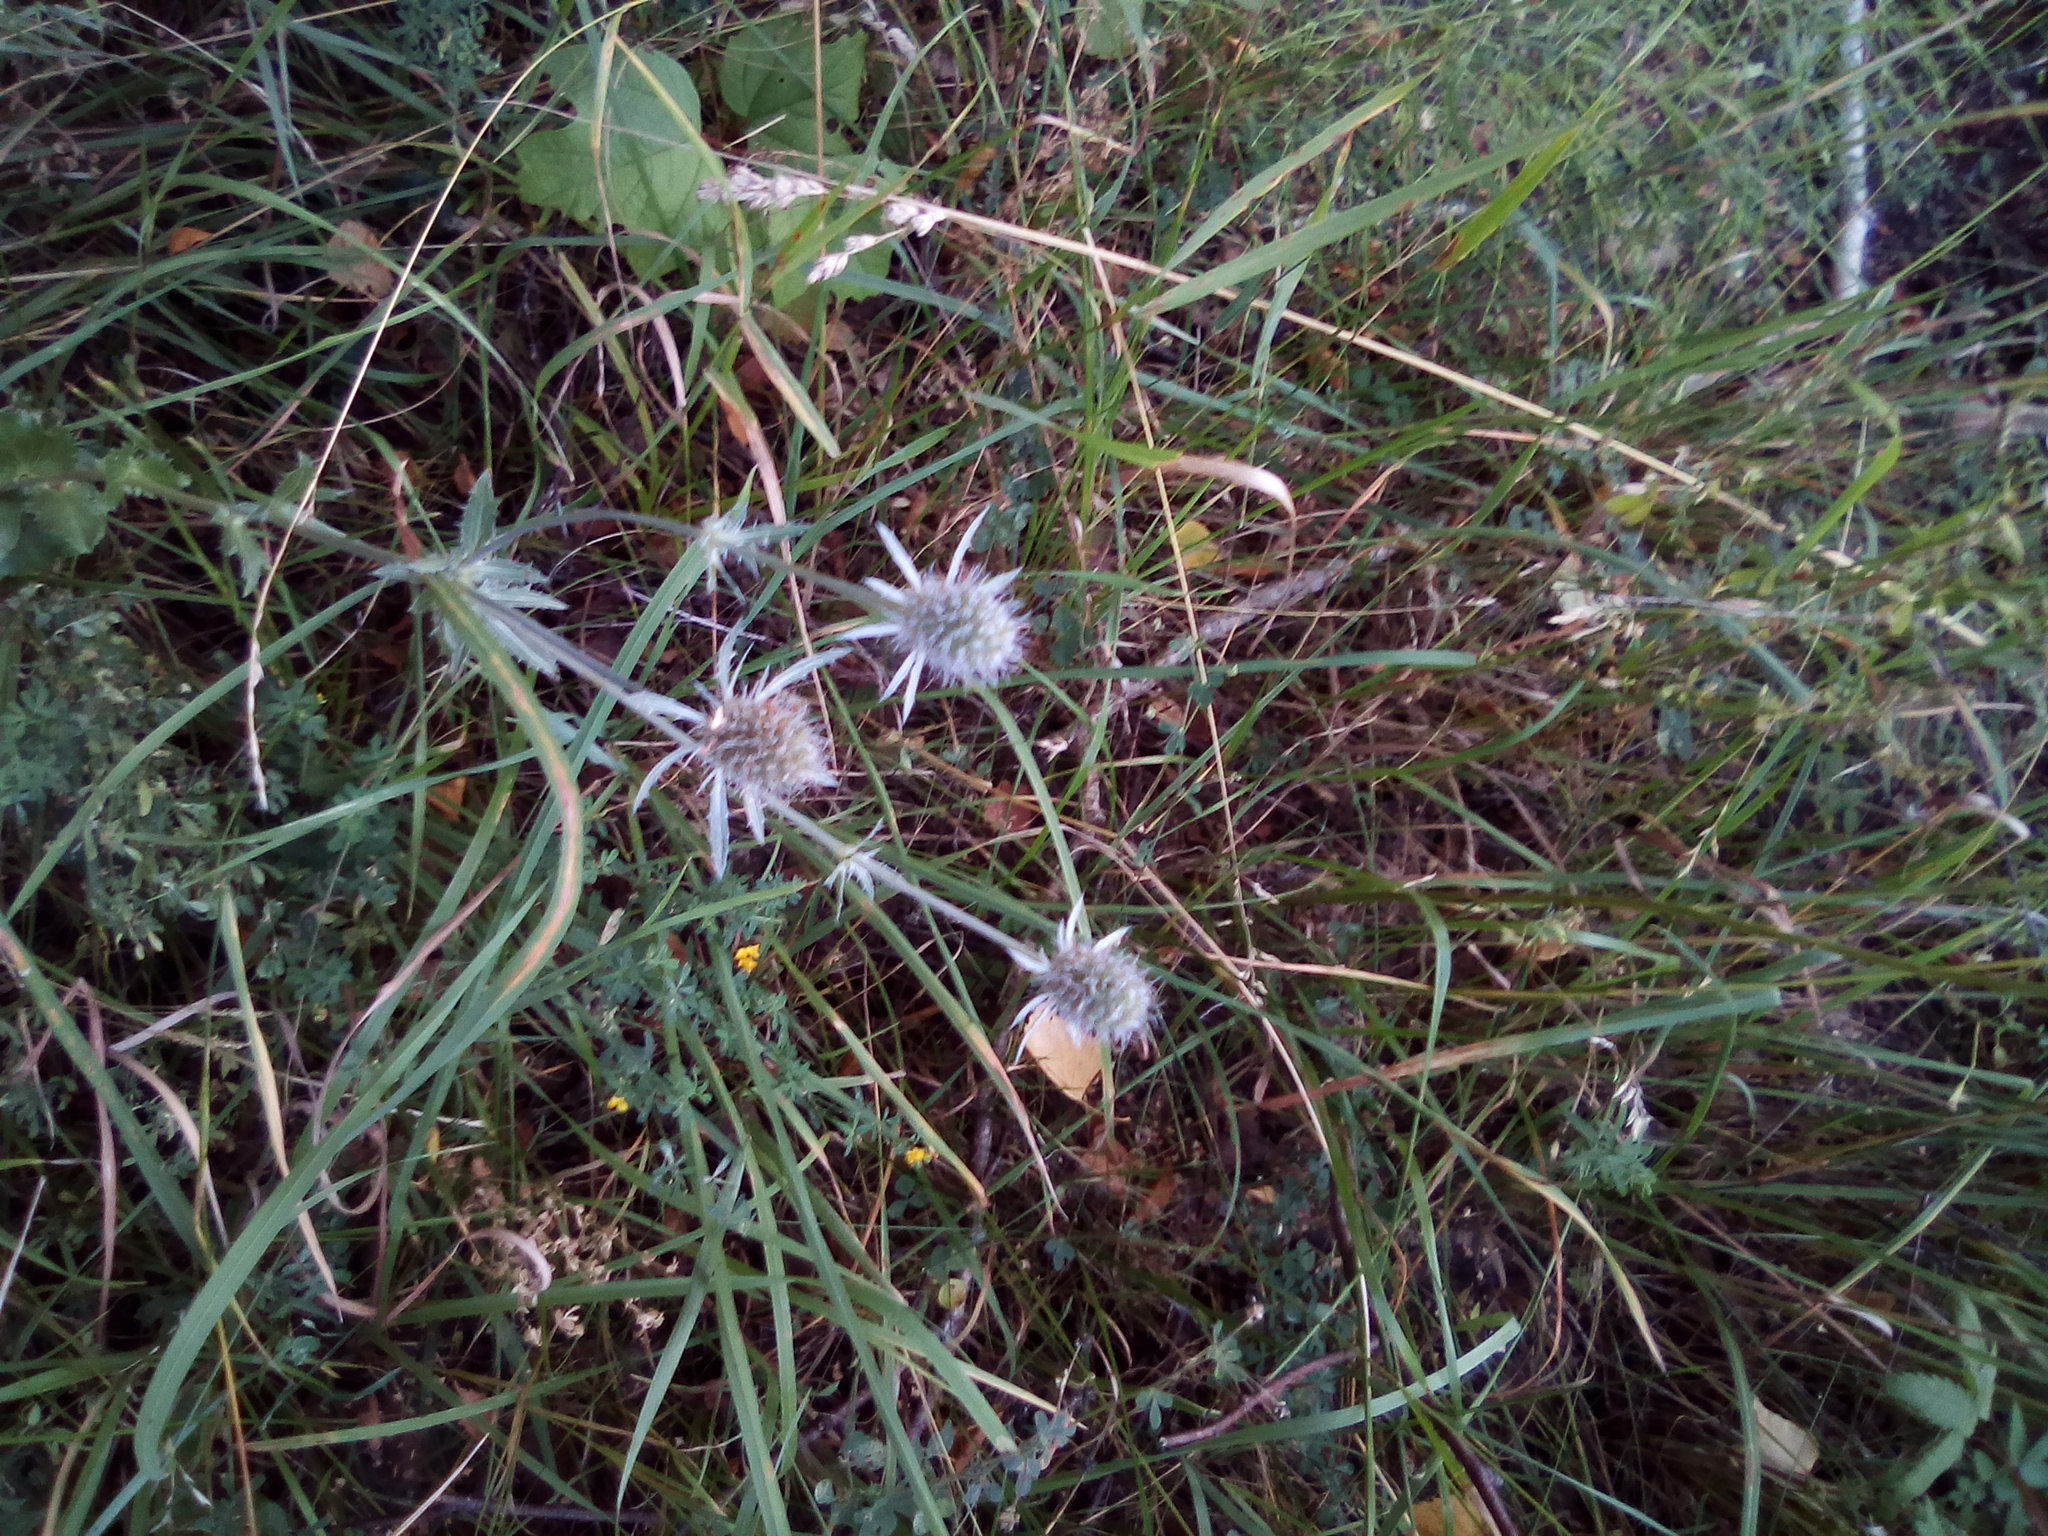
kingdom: Plantae
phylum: Tracheophyta
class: Magnoliopsida
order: Apiales
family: Apiaceae
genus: Eryngium
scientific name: Eryngium planum
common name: Blue eryngo
